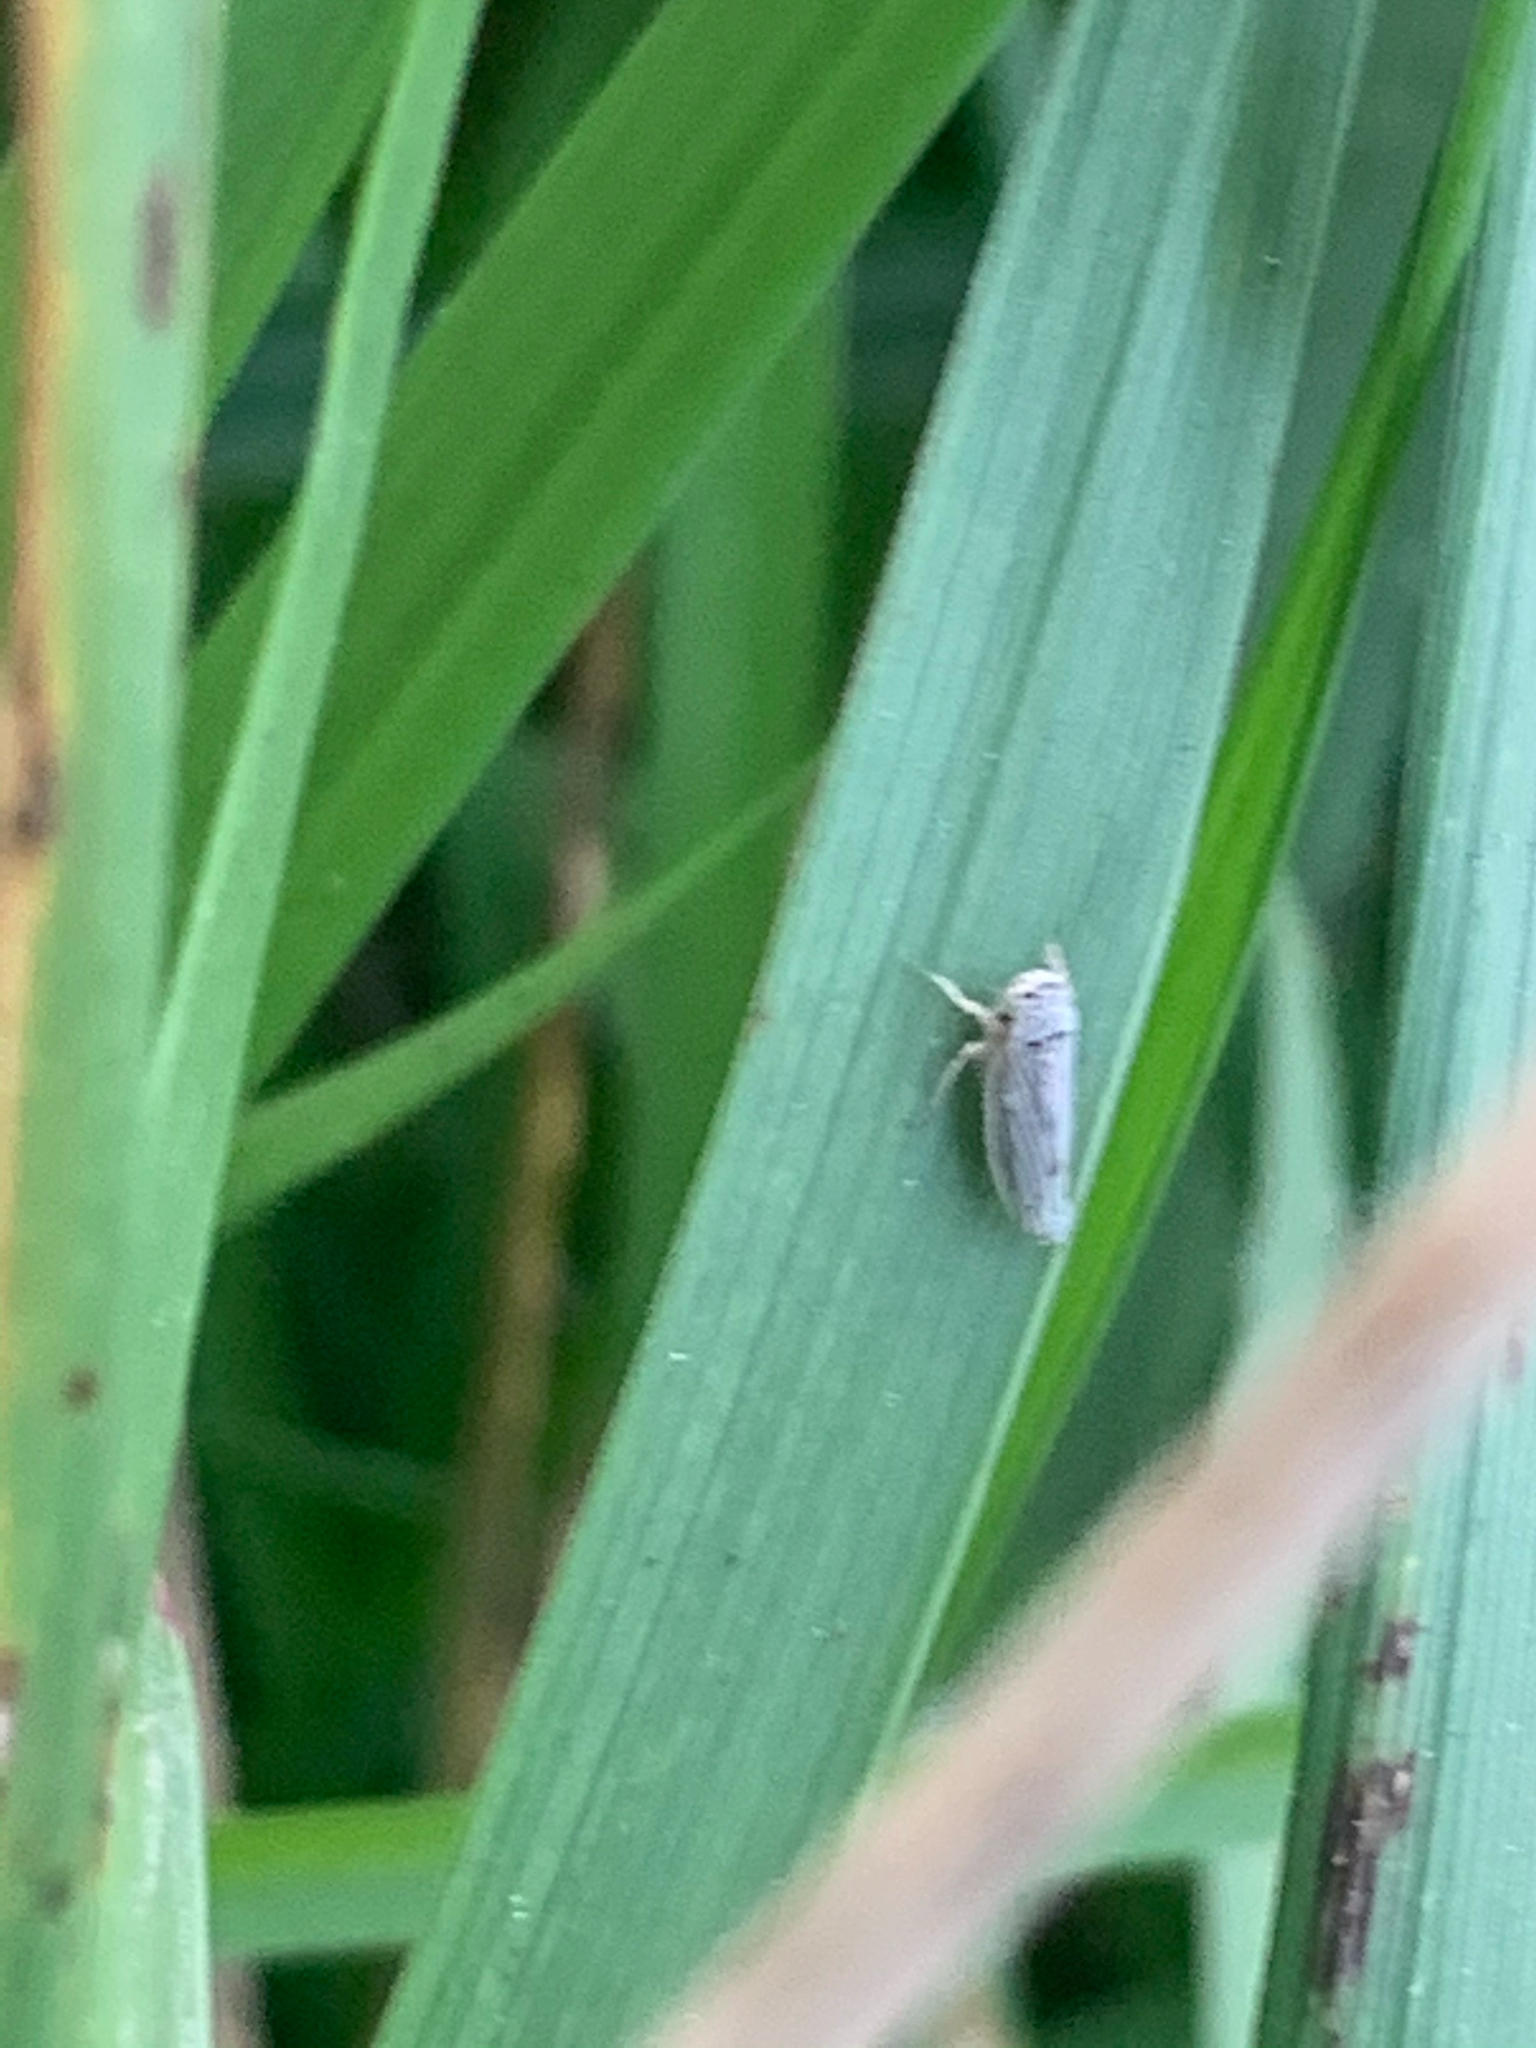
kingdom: Animalia
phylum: Arthropoda
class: Insecta
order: Hemiptera
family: Cicadellidae
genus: Exitianus
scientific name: Exitianus exitiosus
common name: Gray lawn leafhopper
